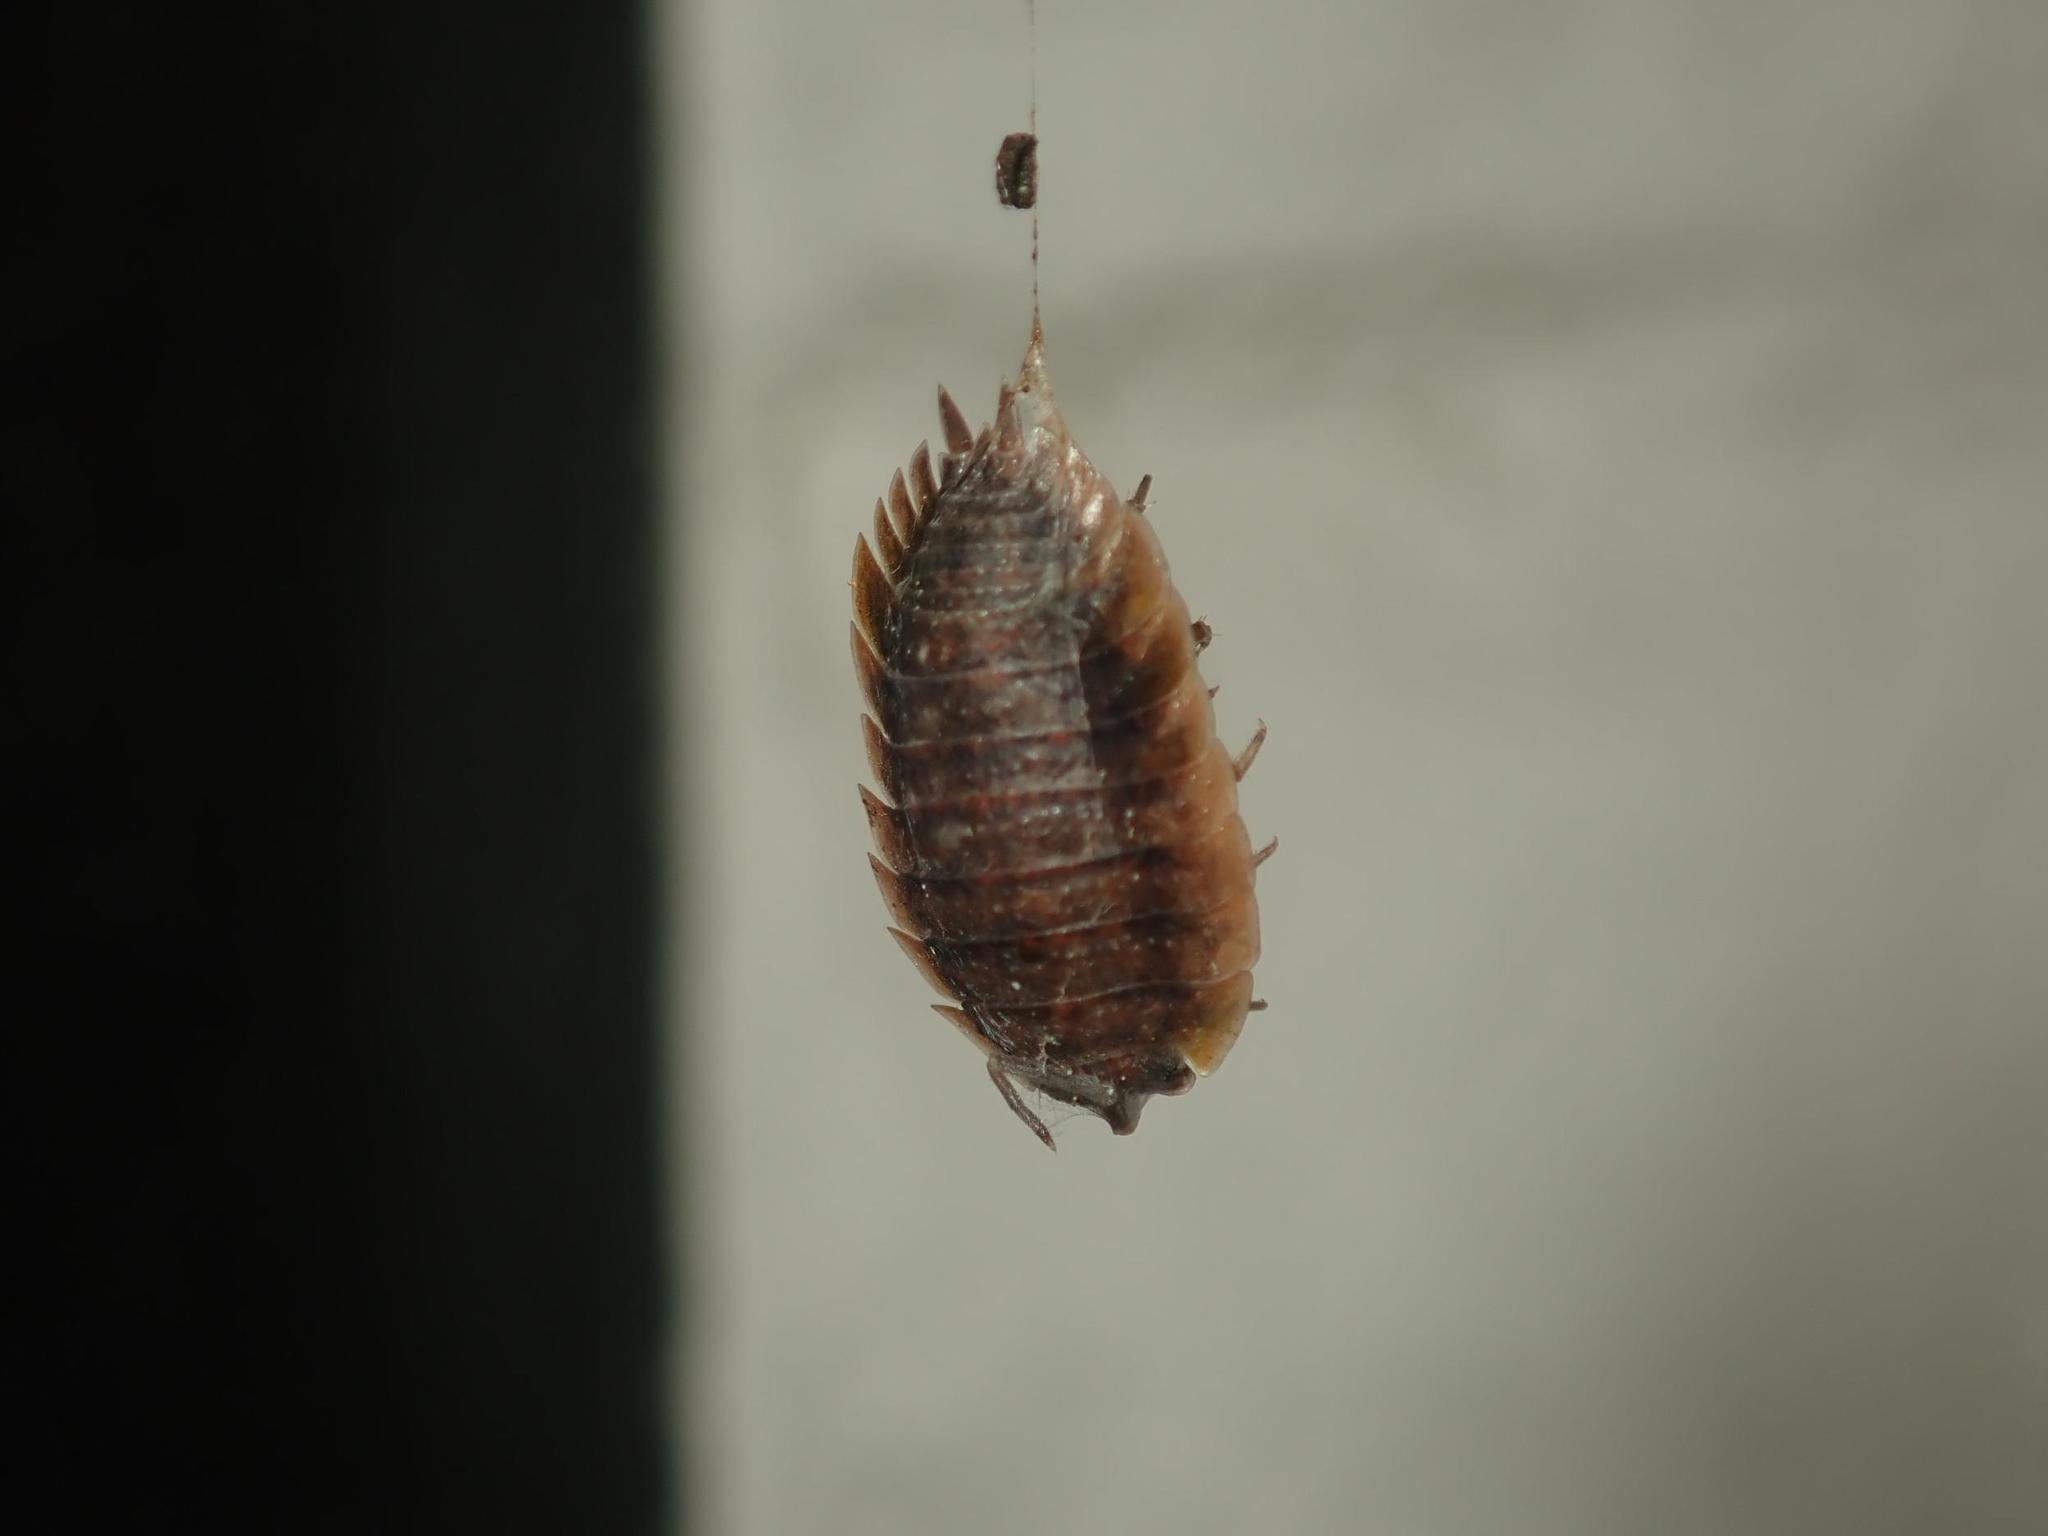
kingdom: Animalia
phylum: Arthropoda
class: Malacostraca
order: Isopoda
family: Porcellionidae
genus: Porcellio
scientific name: Porcellio scaber
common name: Common rough woodlouse
